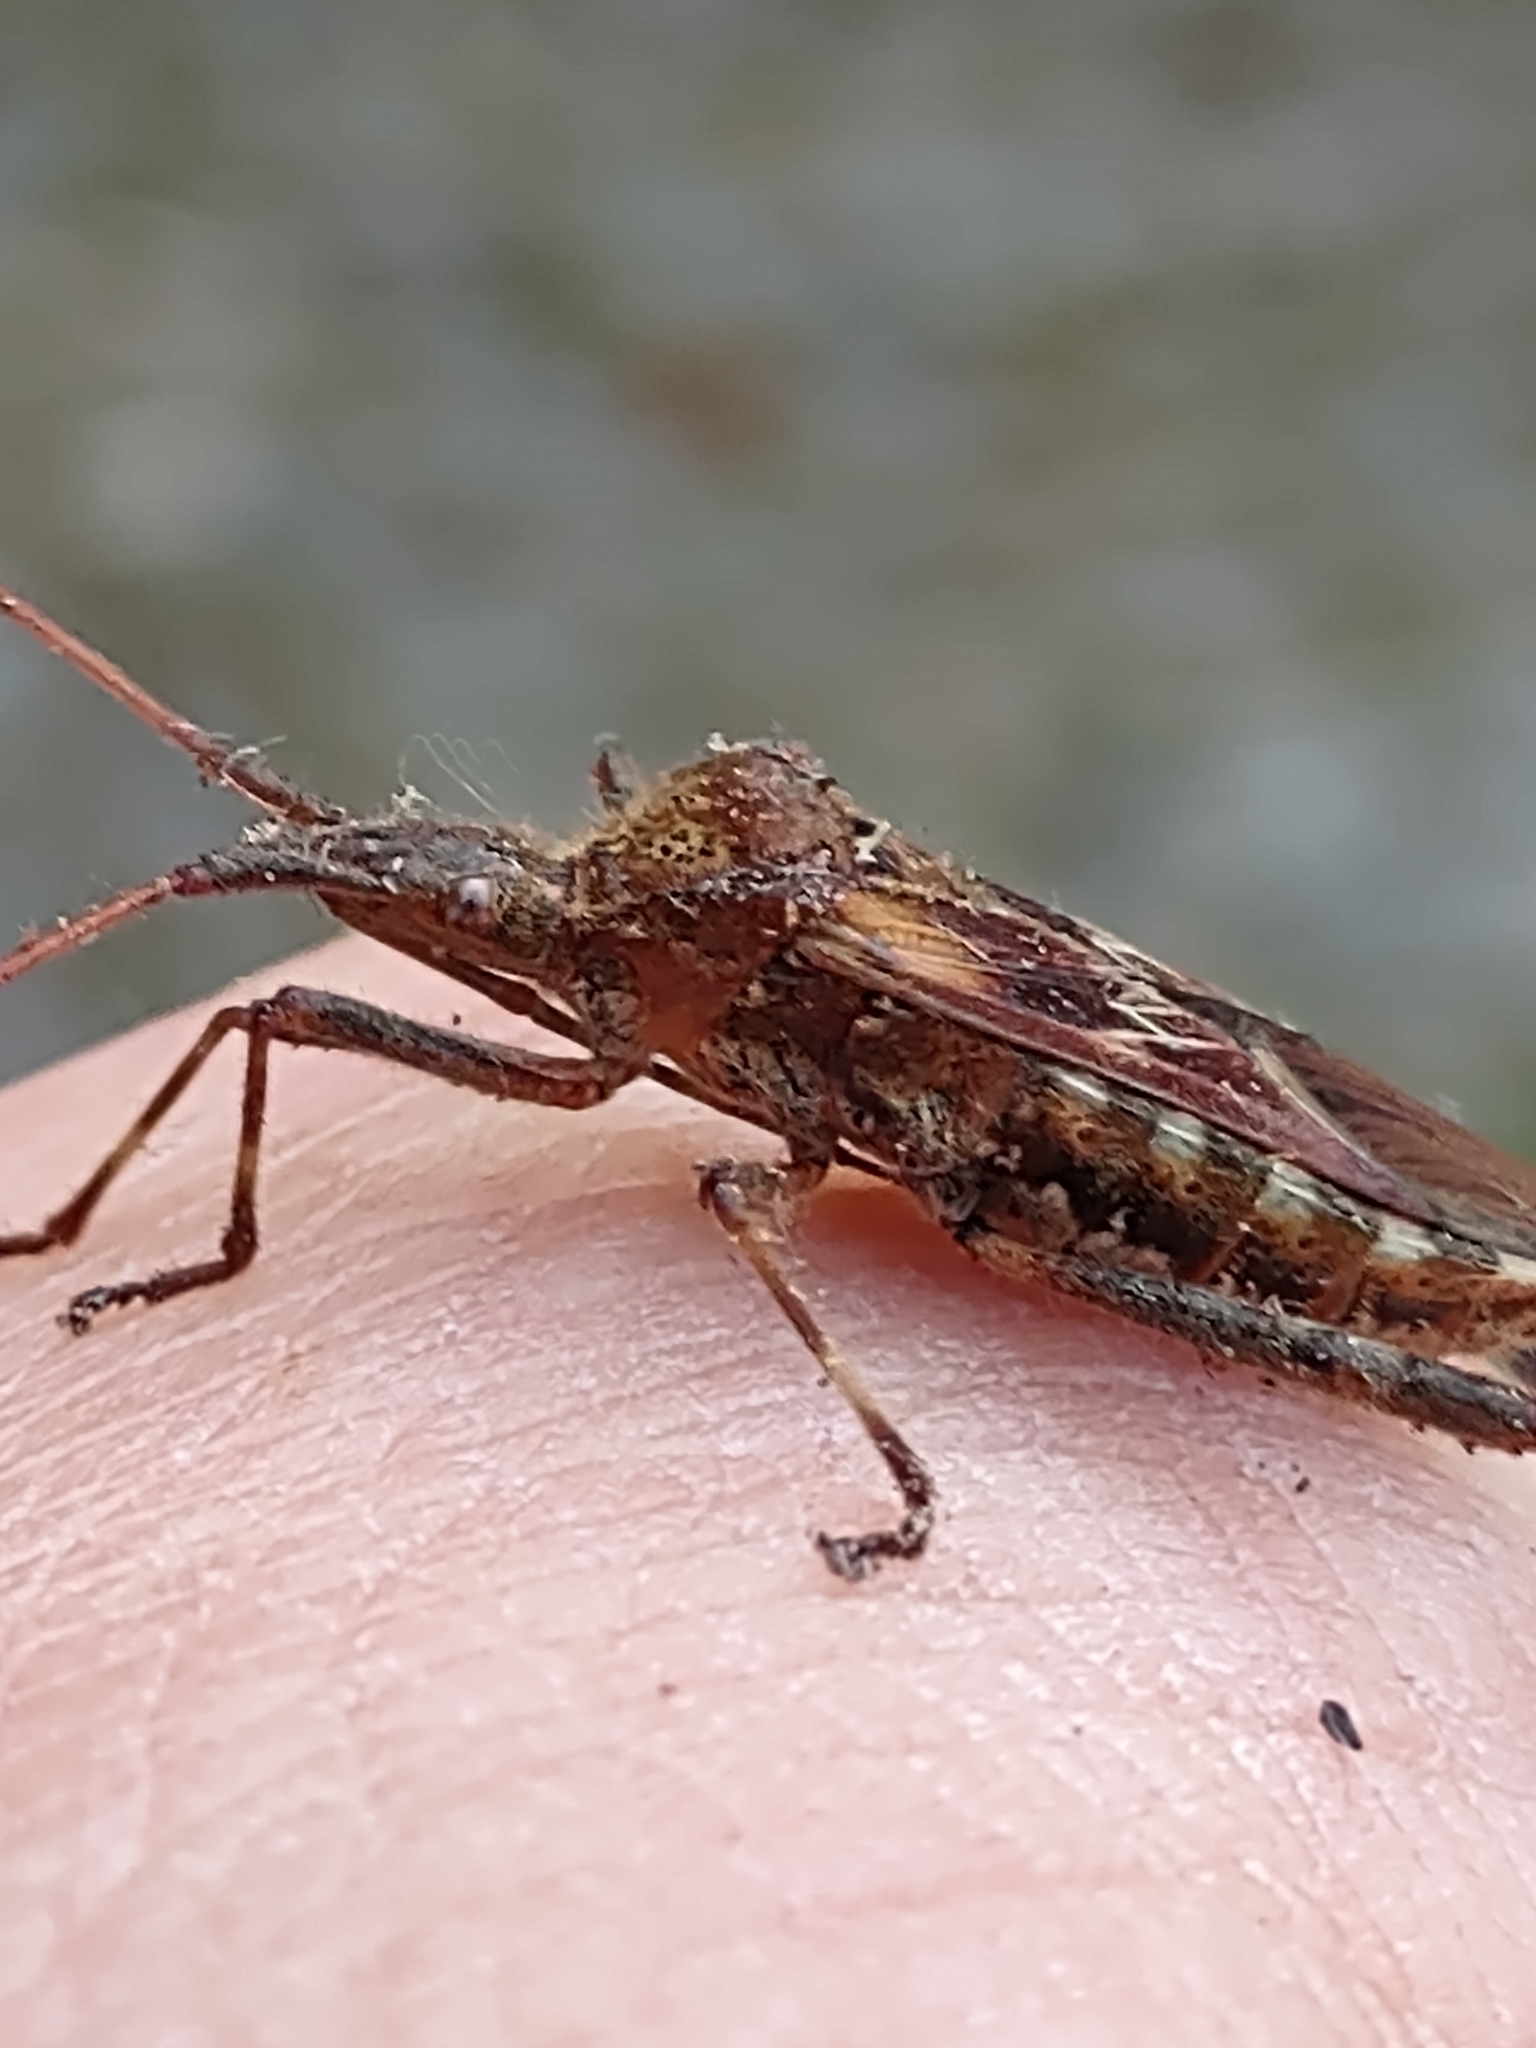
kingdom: Animalia
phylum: Arthropoda
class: Insecta
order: Hemiptera
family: Coreidae
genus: Leptoglossus
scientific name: Leptoglossus occidentalis
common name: Western conifer-seed bug
